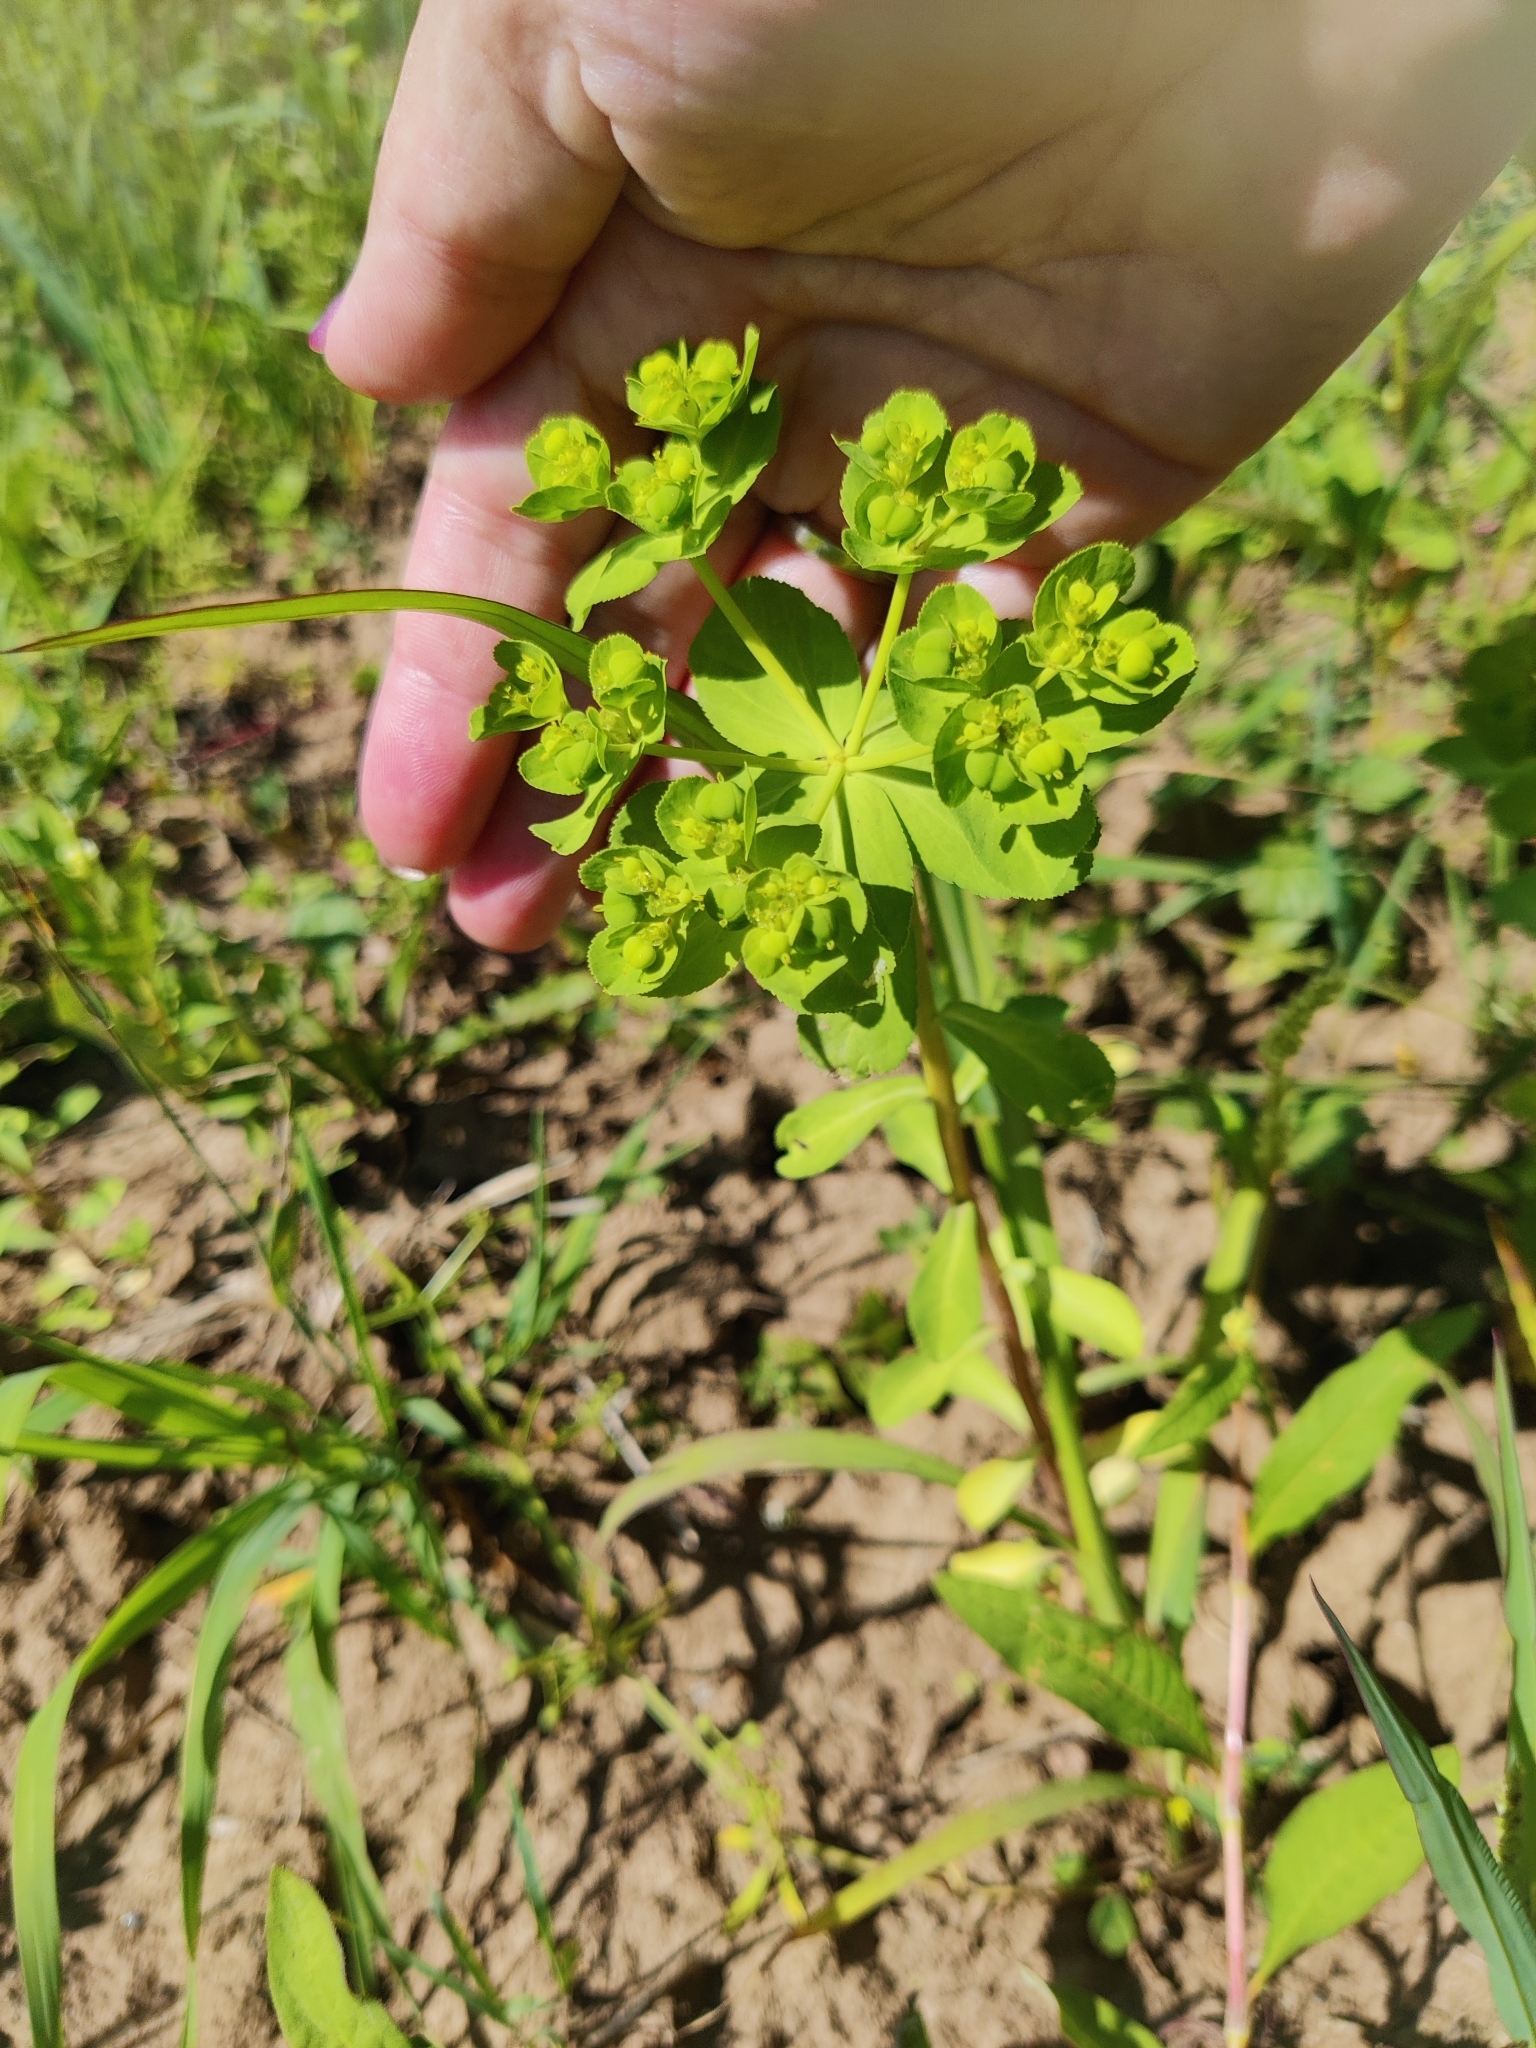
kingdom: Plantae
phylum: Tracheophyta
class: Magnoliopsida
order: Malpighiales
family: Euphorbiaceae
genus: Euphorbia
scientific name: Euphorbia helioscopia
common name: Sun spurge
